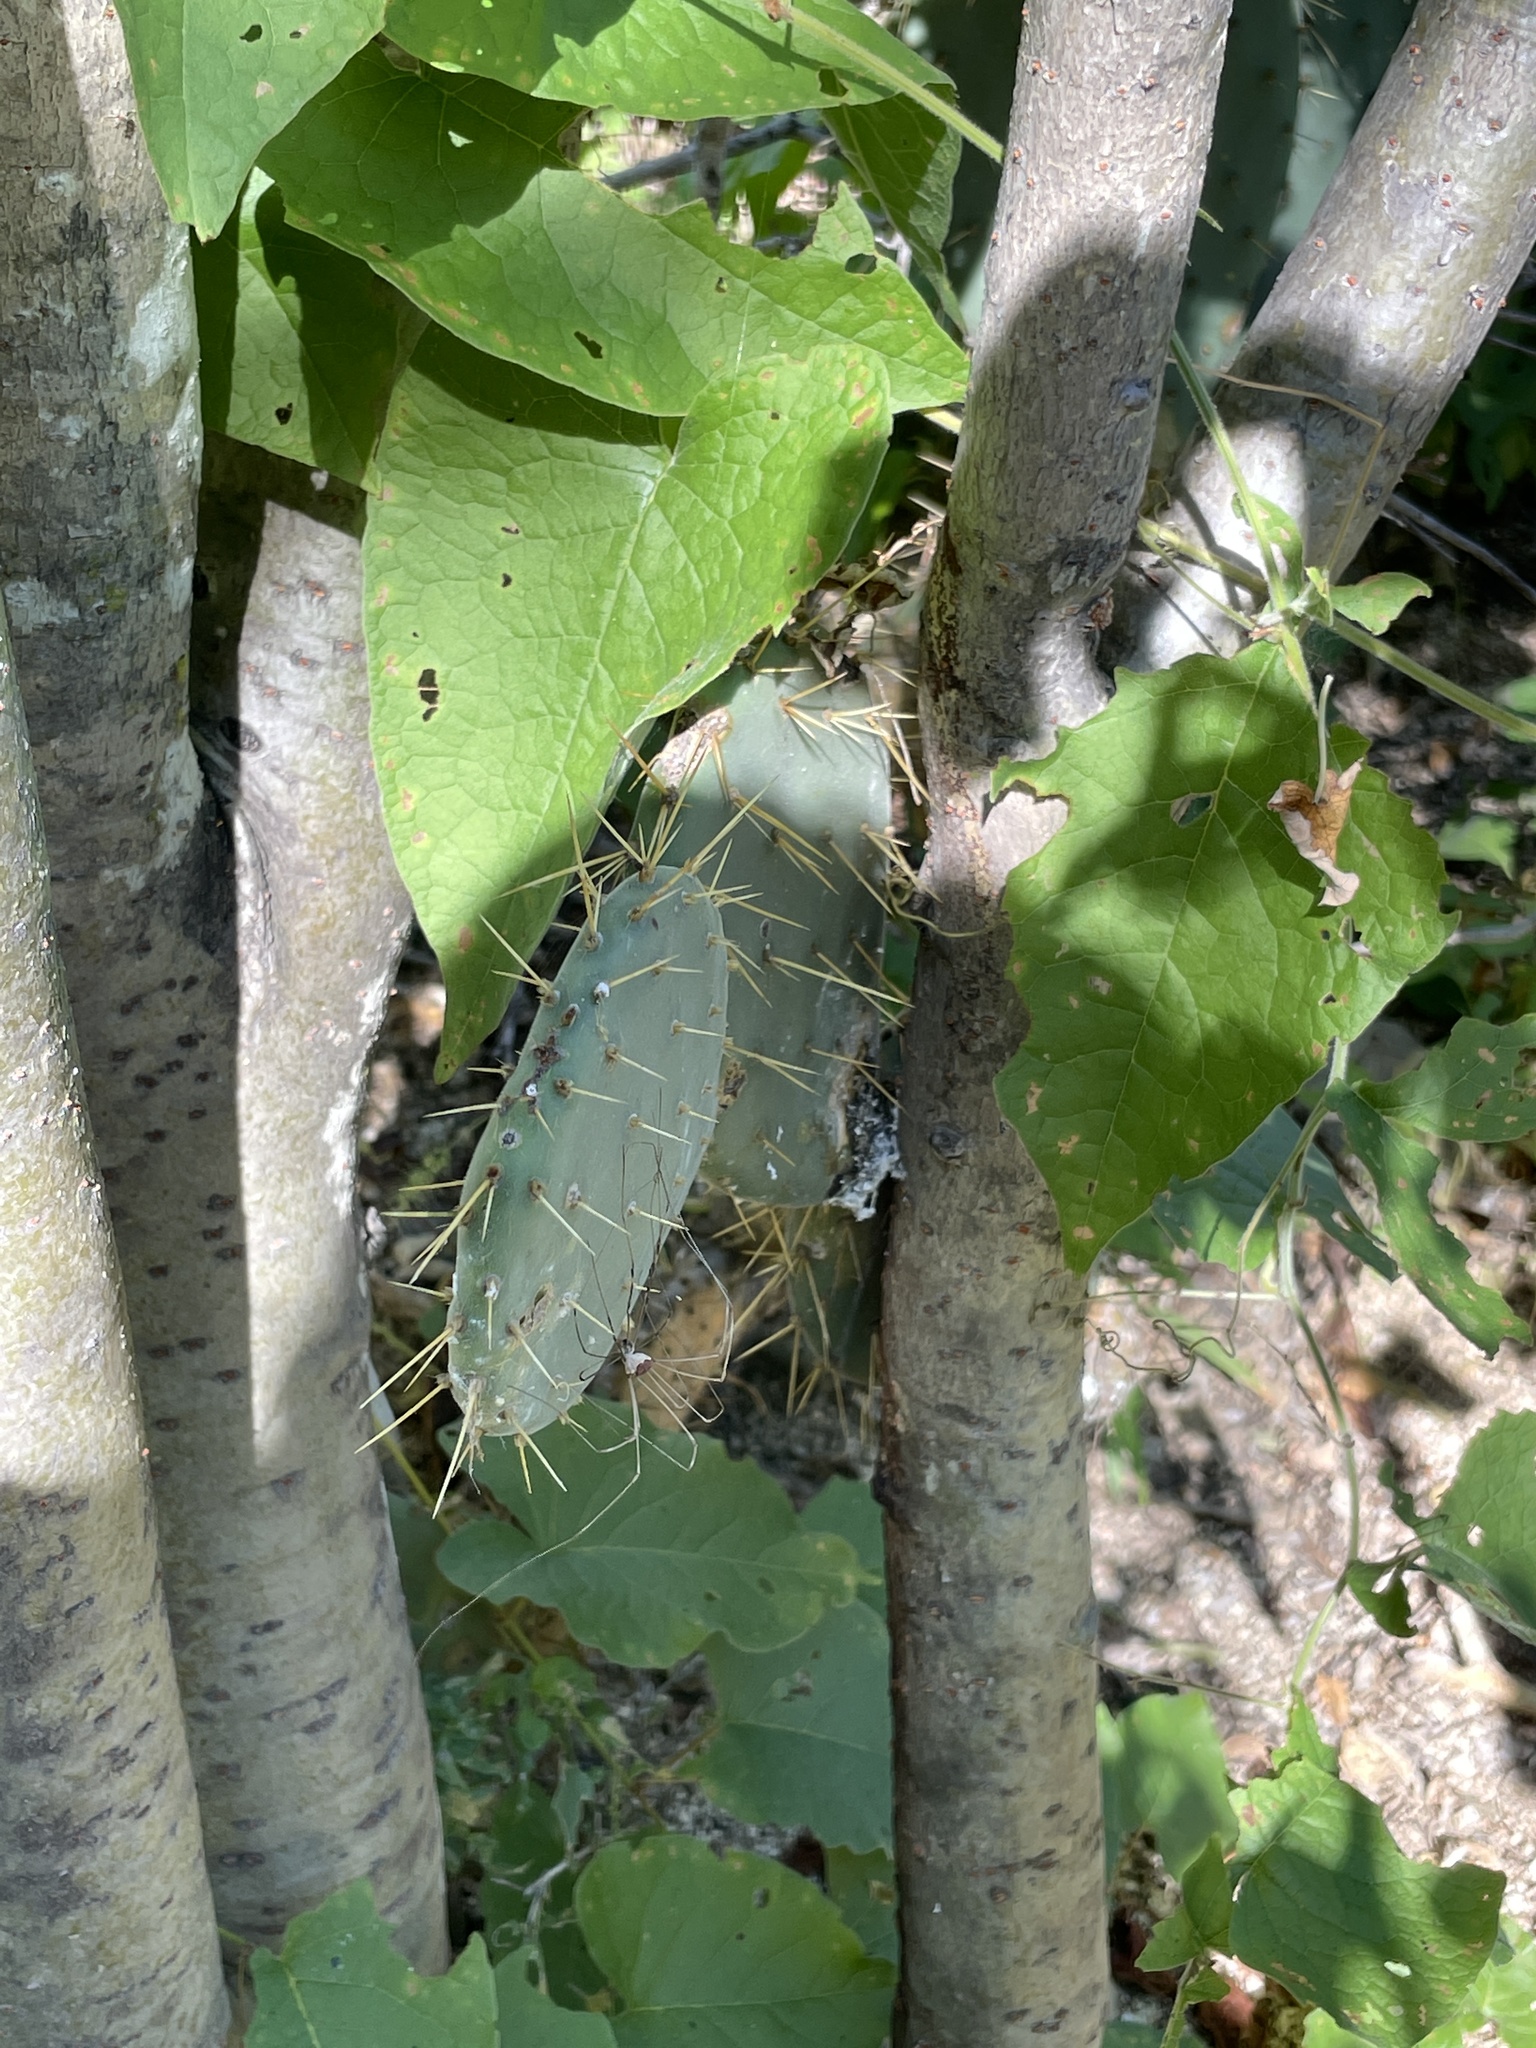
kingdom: Plantae
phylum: Tracheophyta
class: Magnoliopsida
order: Caryophyllales
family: Cactaceae
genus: Opuntia
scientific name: Opuntia caboensis
